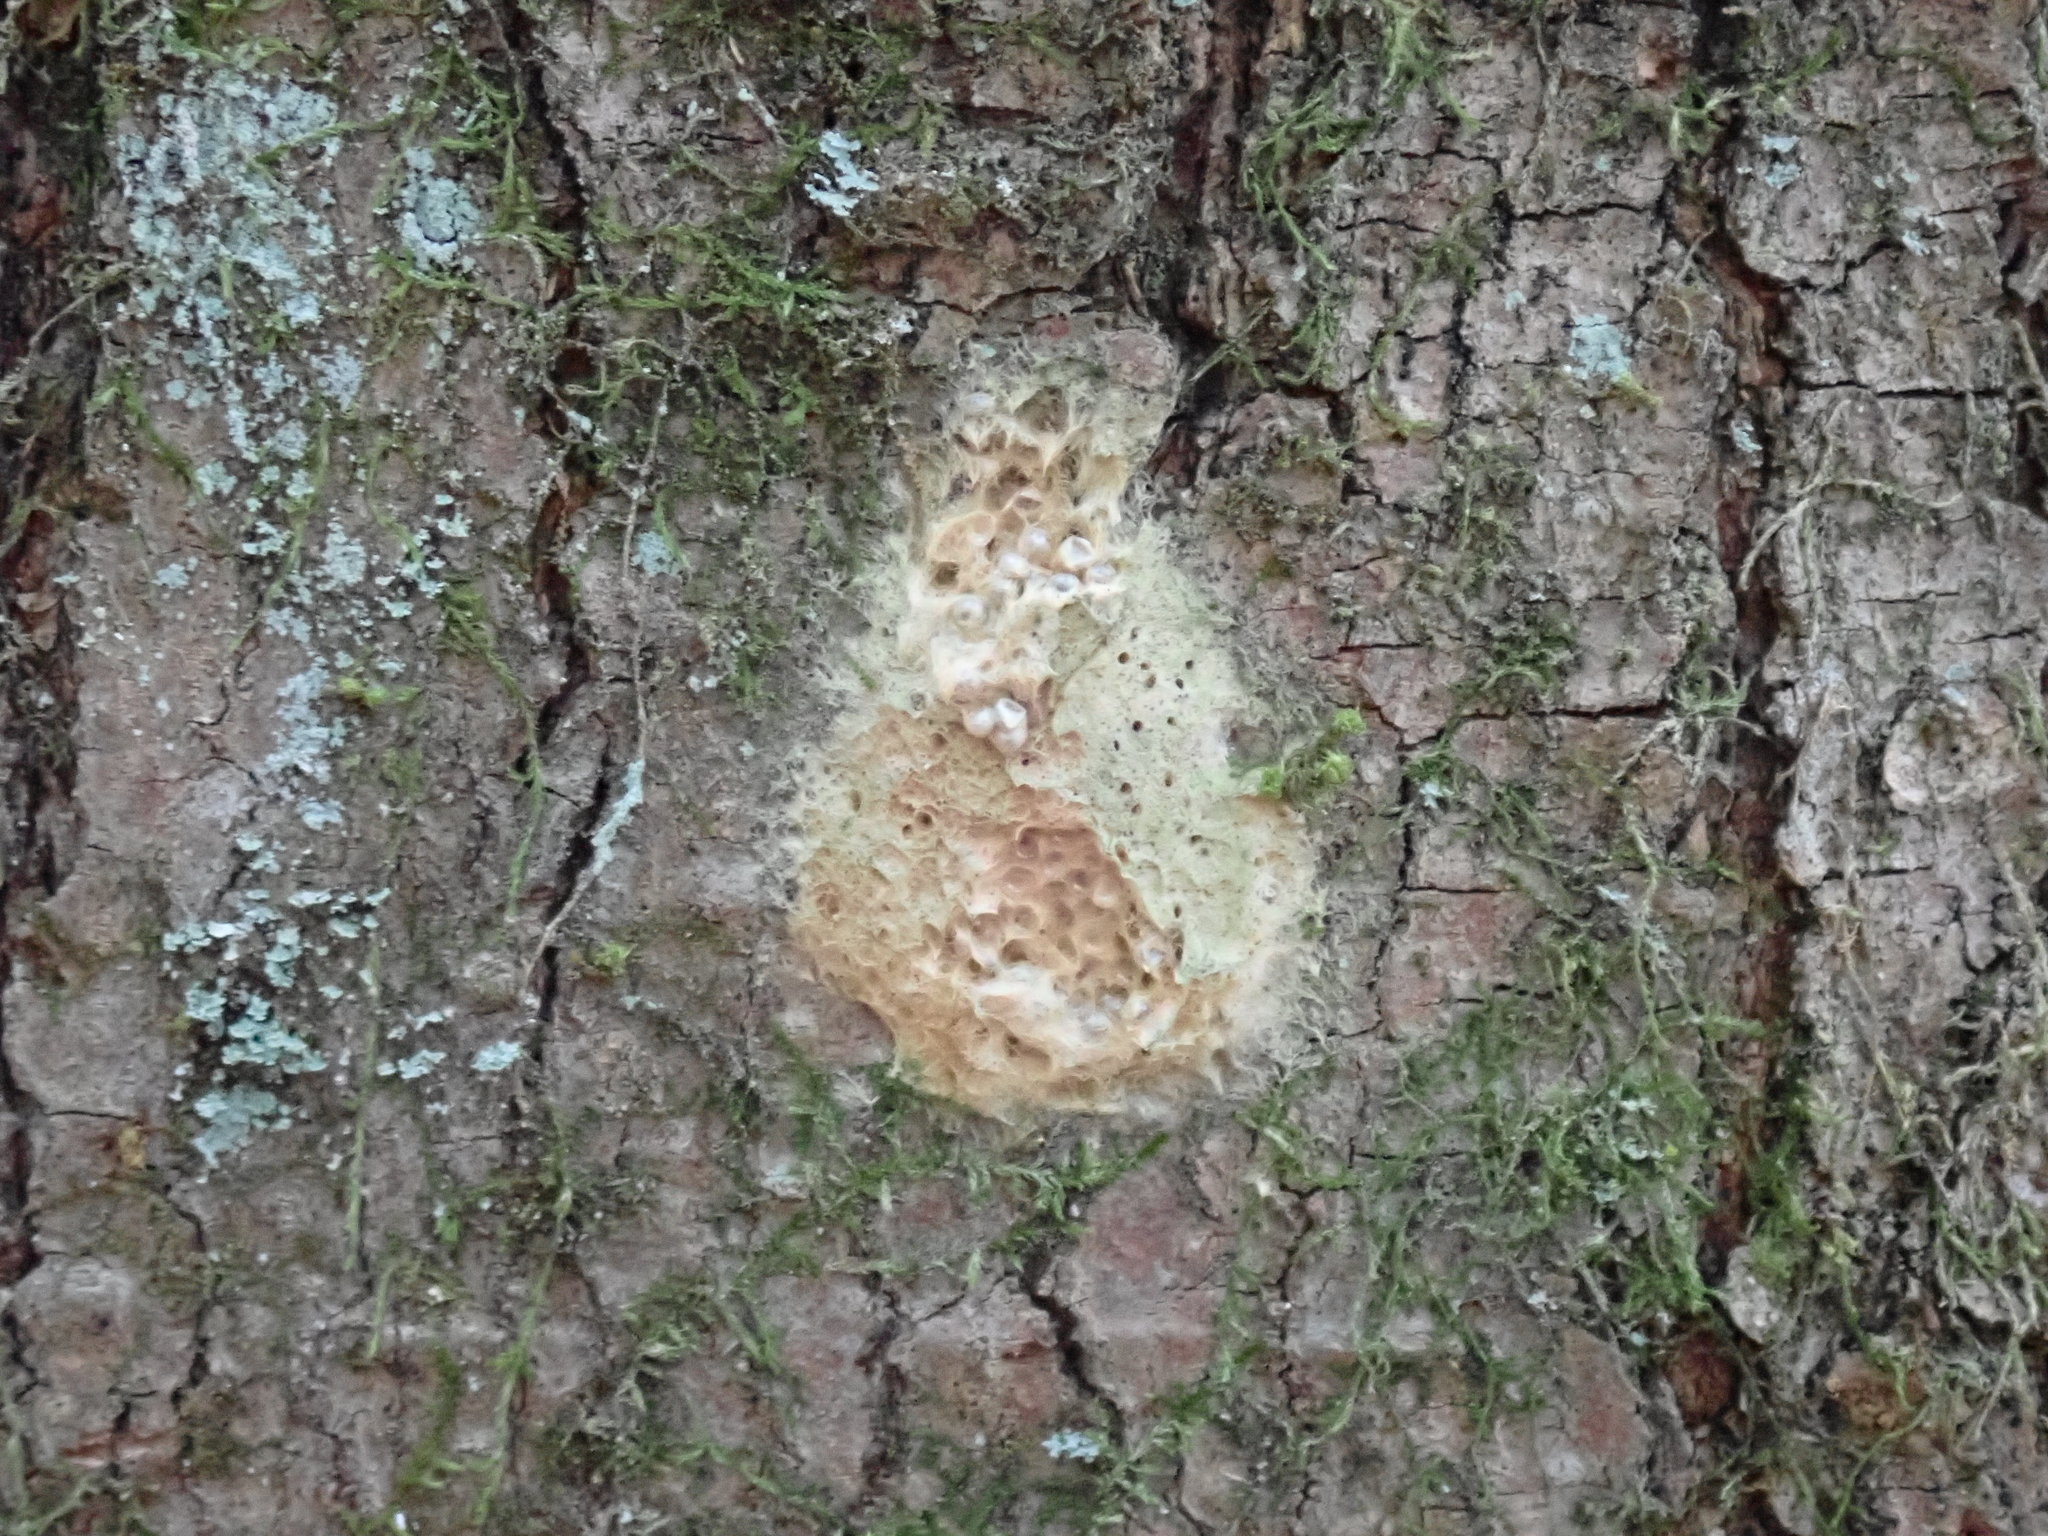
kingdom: Animalia
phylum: Arthropoda
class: Insecta
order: Lepidoptera
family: Erebidae
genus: Lymantria
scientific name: Lymantria dispar
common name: Gypsy moth
